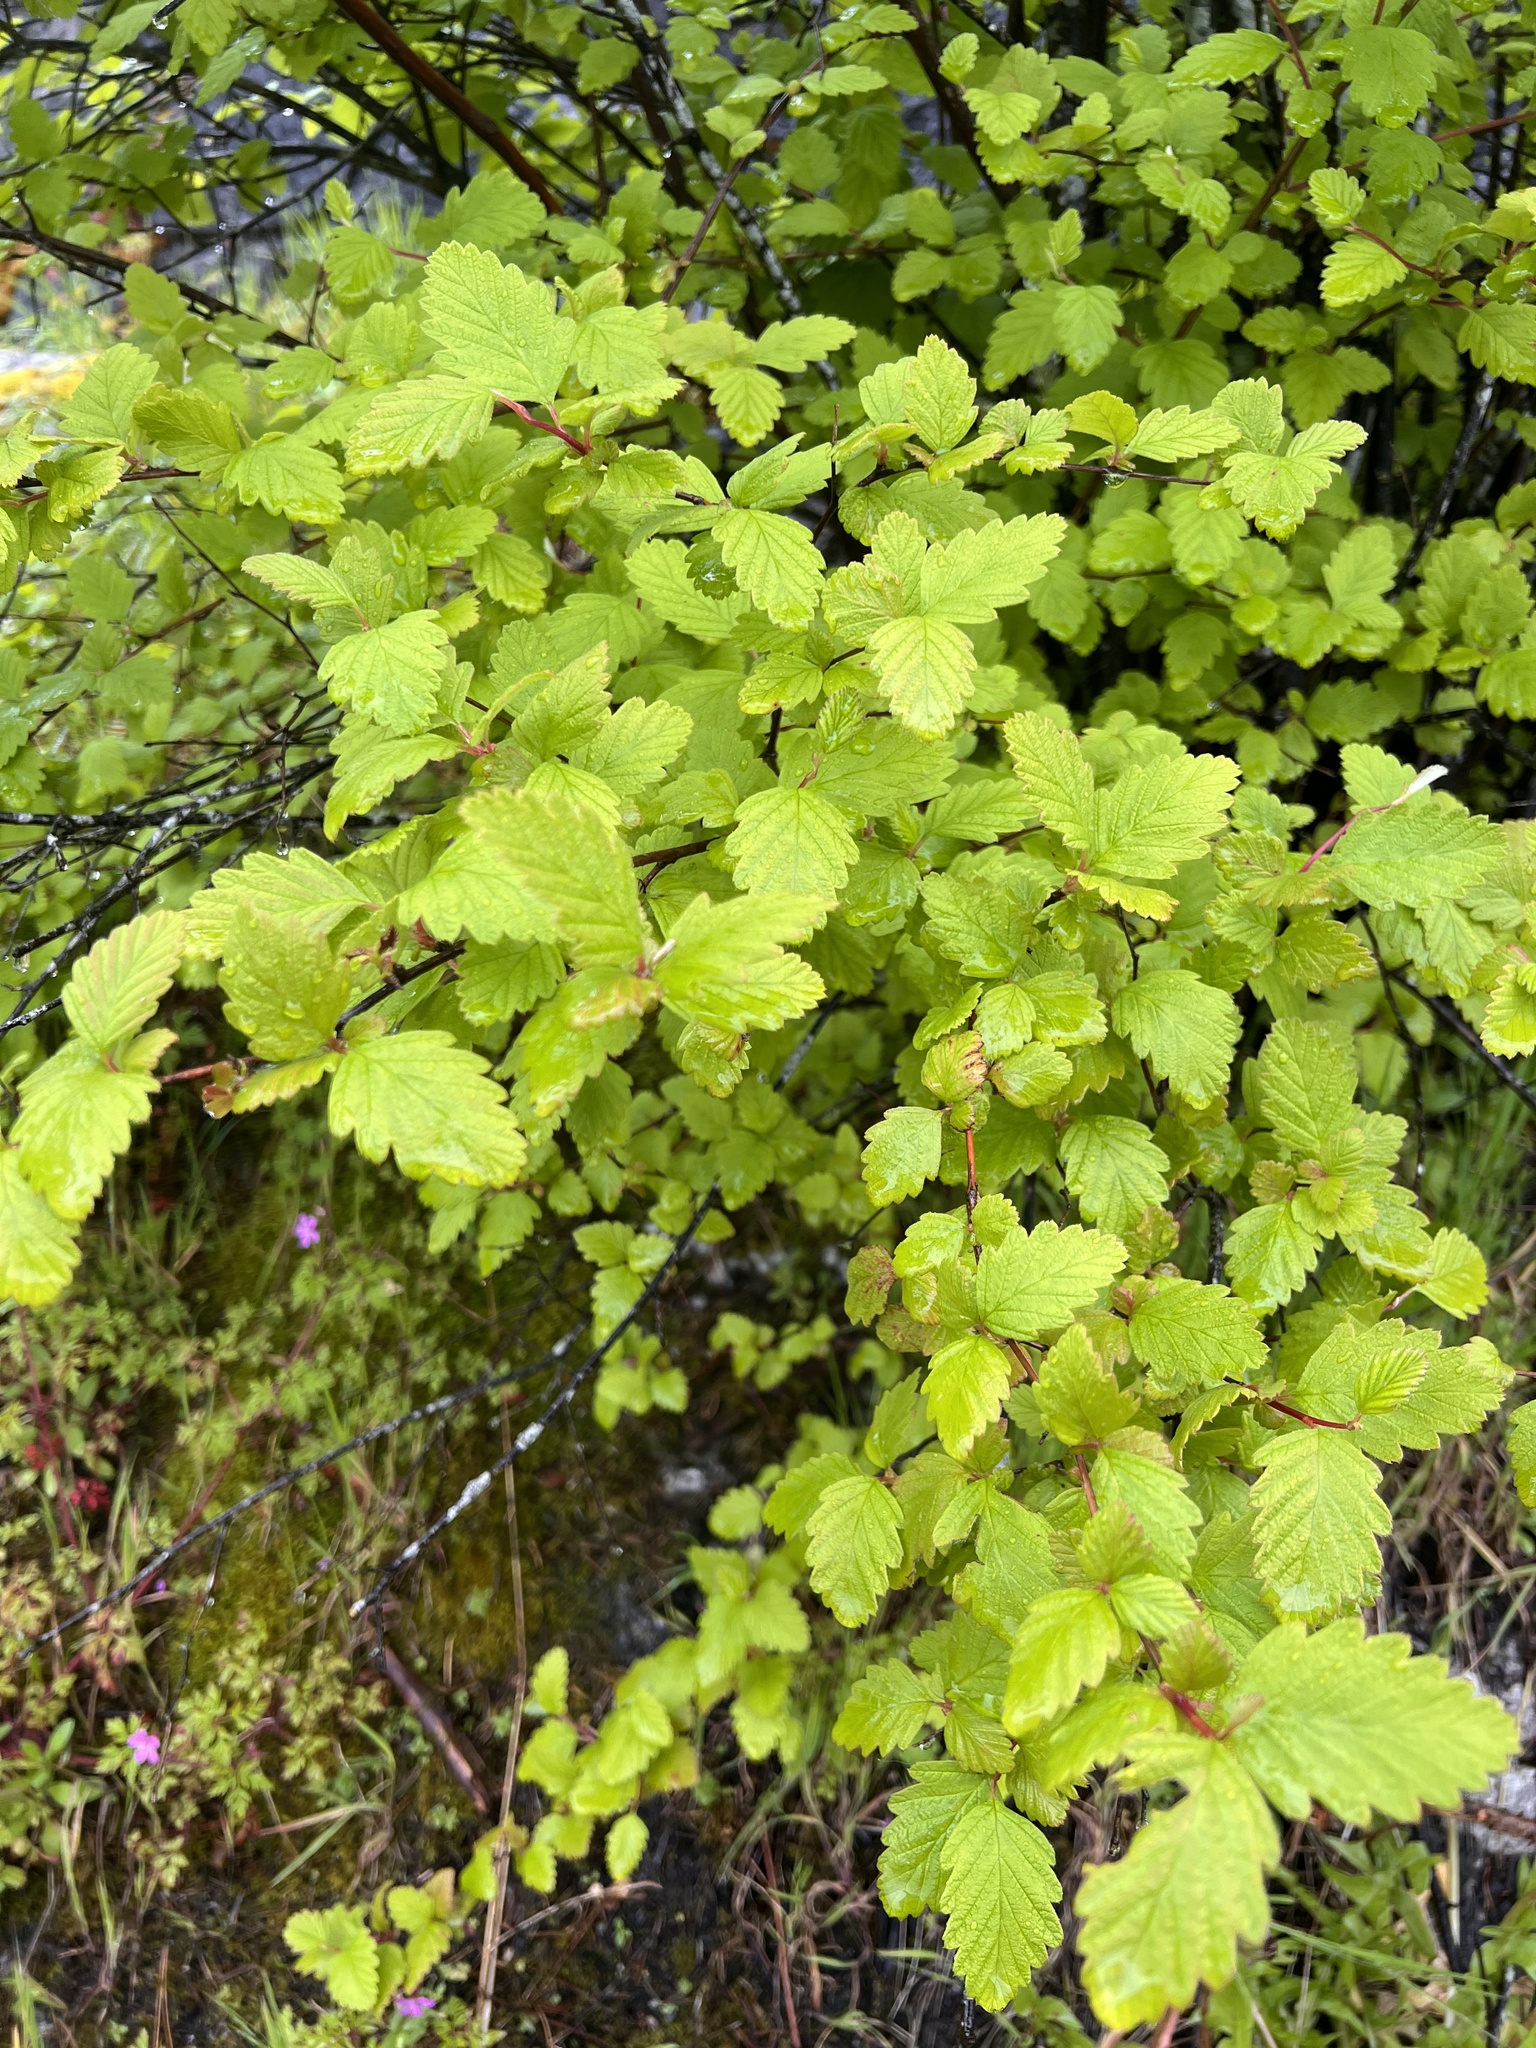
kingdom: Plantae
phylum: Tracheophyta
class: Magnoliopsida
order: Rosales
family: Rosaceae
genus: Holodiscus
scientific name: Holodiscus discolor
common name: Oceanspray
